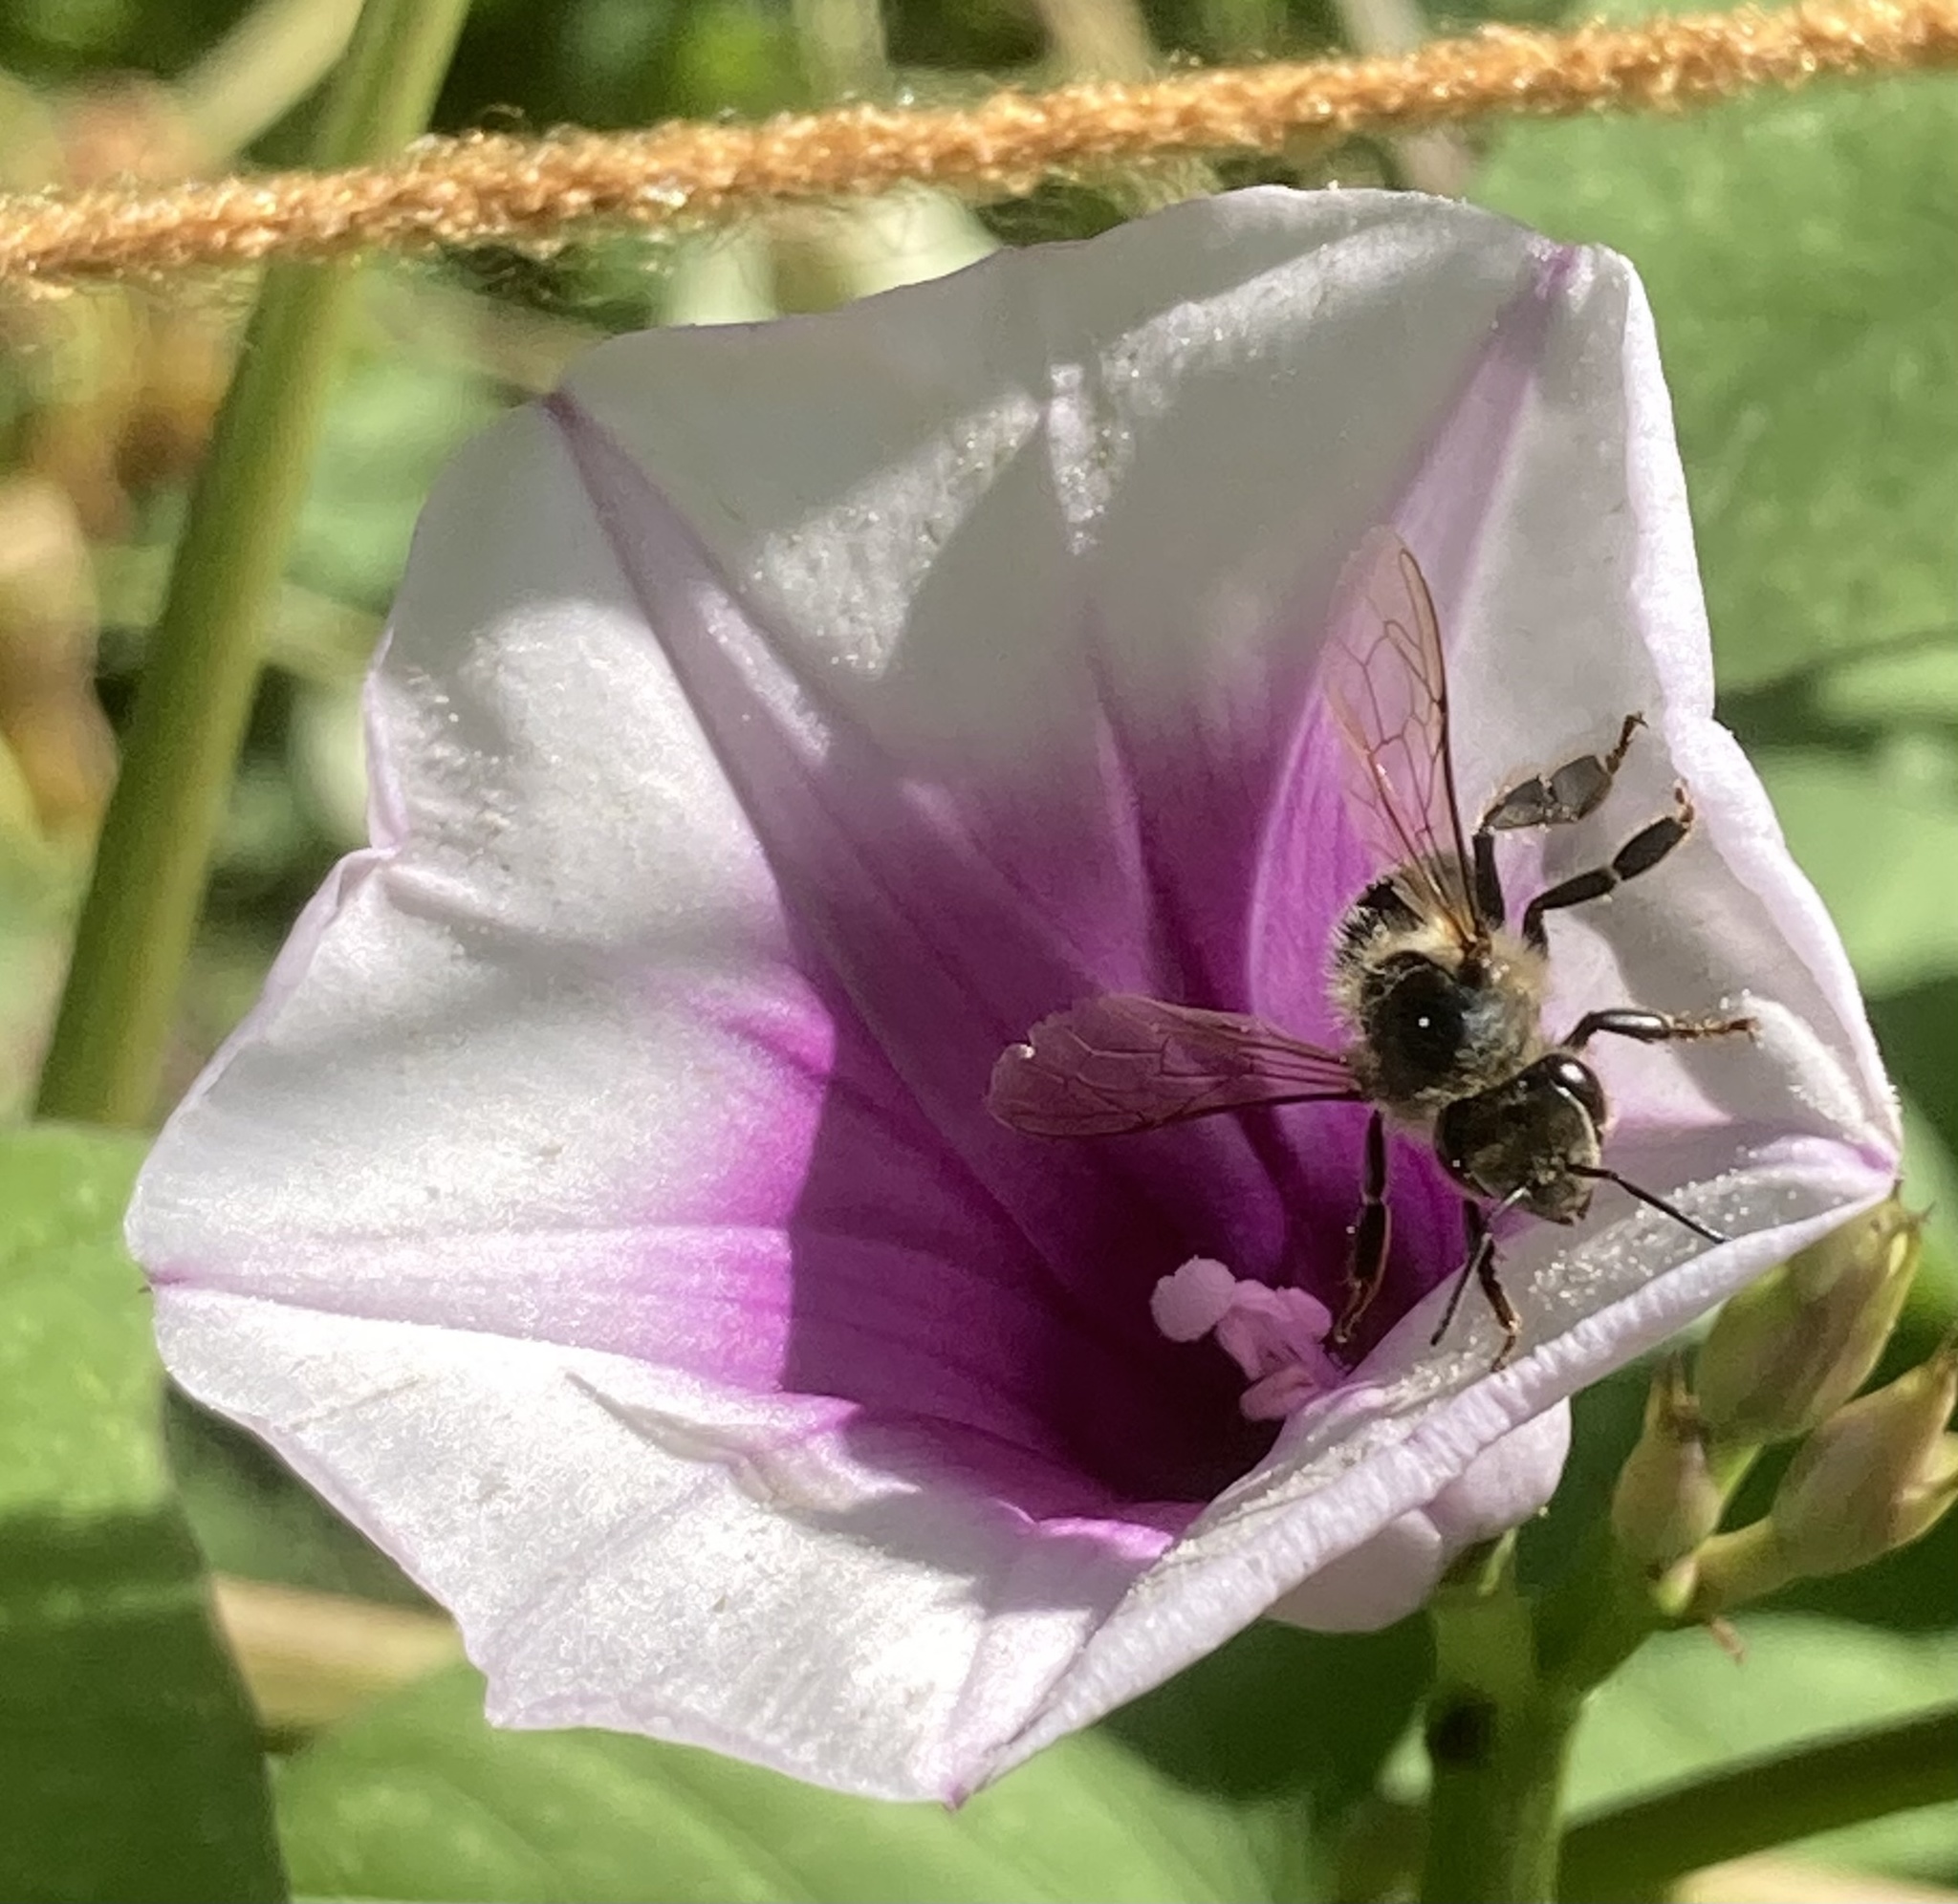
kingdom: Animalia
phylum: Arthropoda
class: Insecta
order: Hymenoptera
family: Apidae
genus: Apis
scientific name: Apis mellifera
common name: Honey bee
